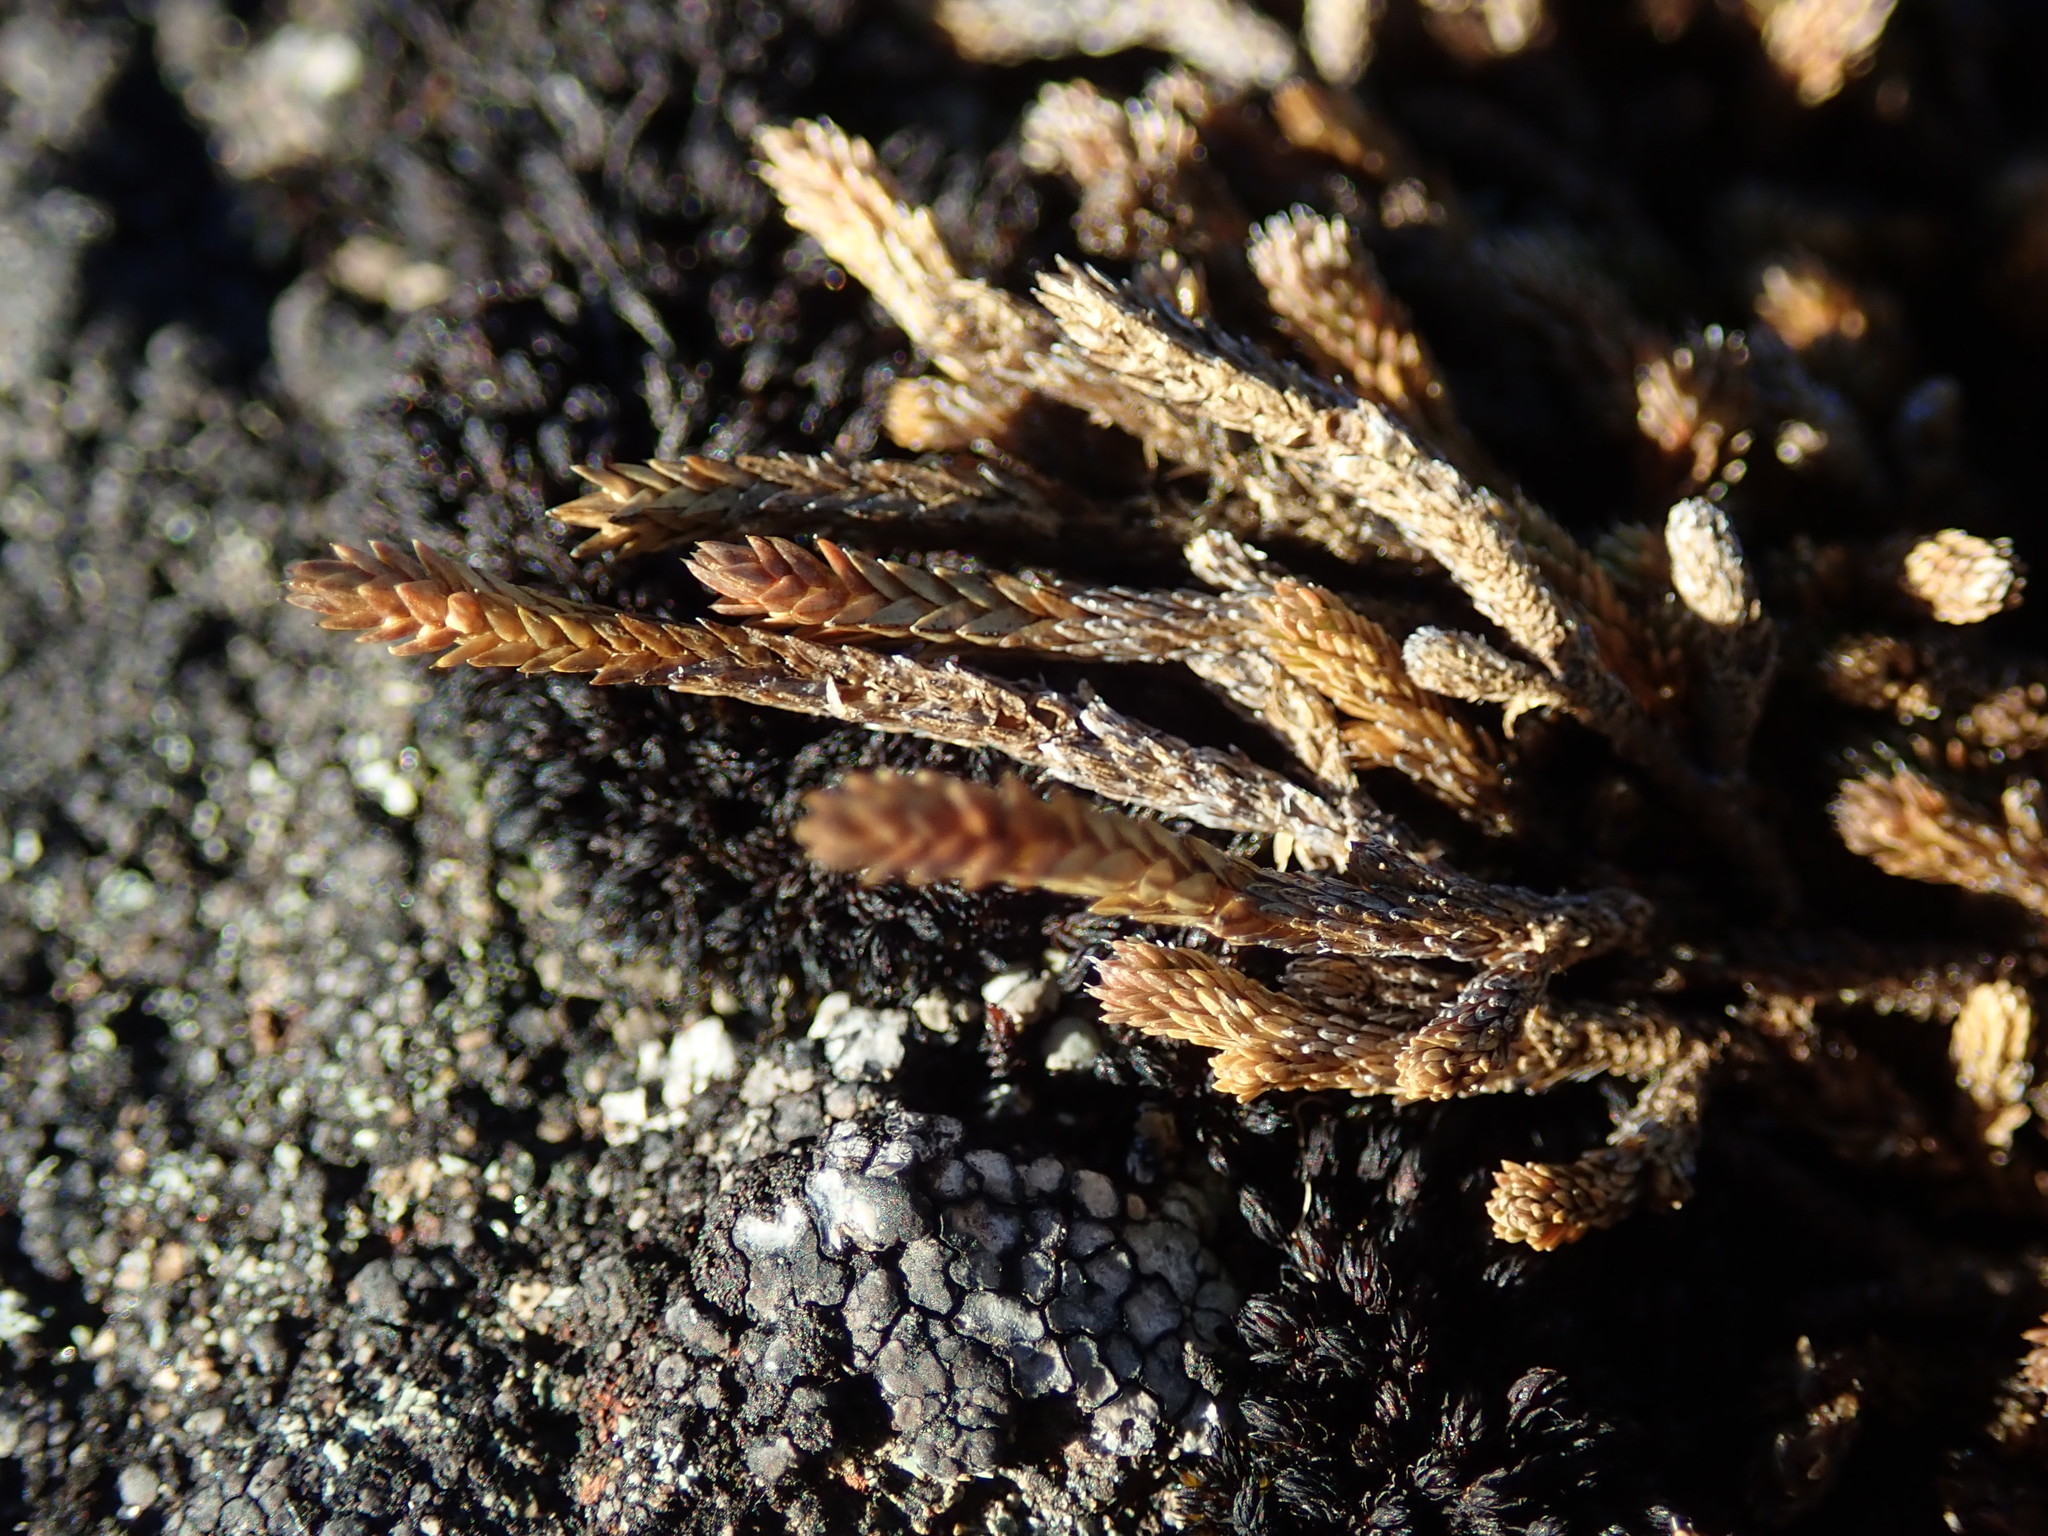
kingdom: Plantae
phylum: Tracheophyta
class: Lycopodiopsida
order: Selaginellales
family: Selaginellaceae
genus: Selaginella
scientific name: Selaginella wallacei
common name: Wallace's selaginella
